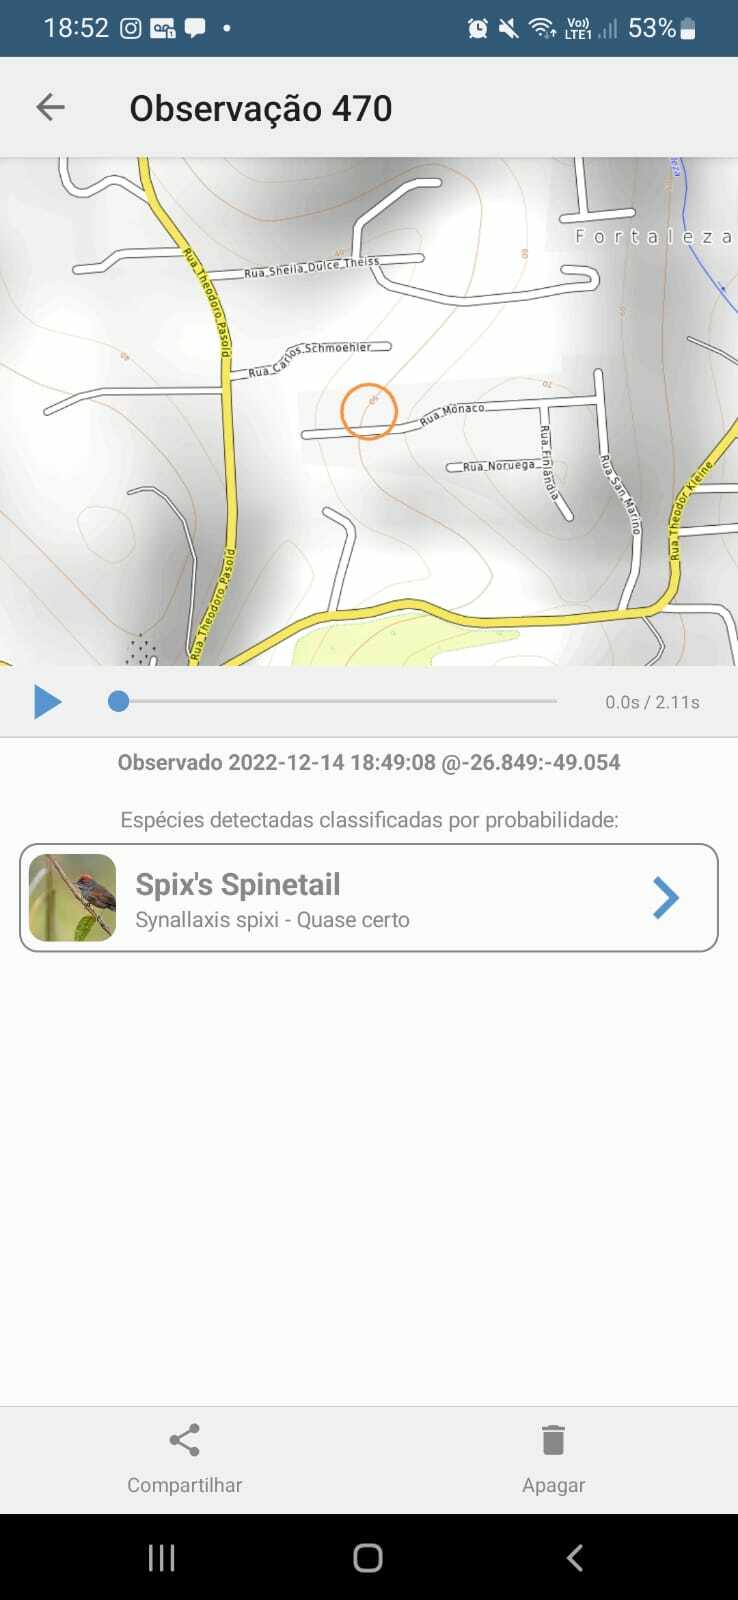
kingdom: Animalia
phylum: Chordata
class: Aves
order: Passeriformes
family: Furnariidae
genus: Synallaxis
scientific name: Synallaxis spixi
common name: Spix's spinetail
